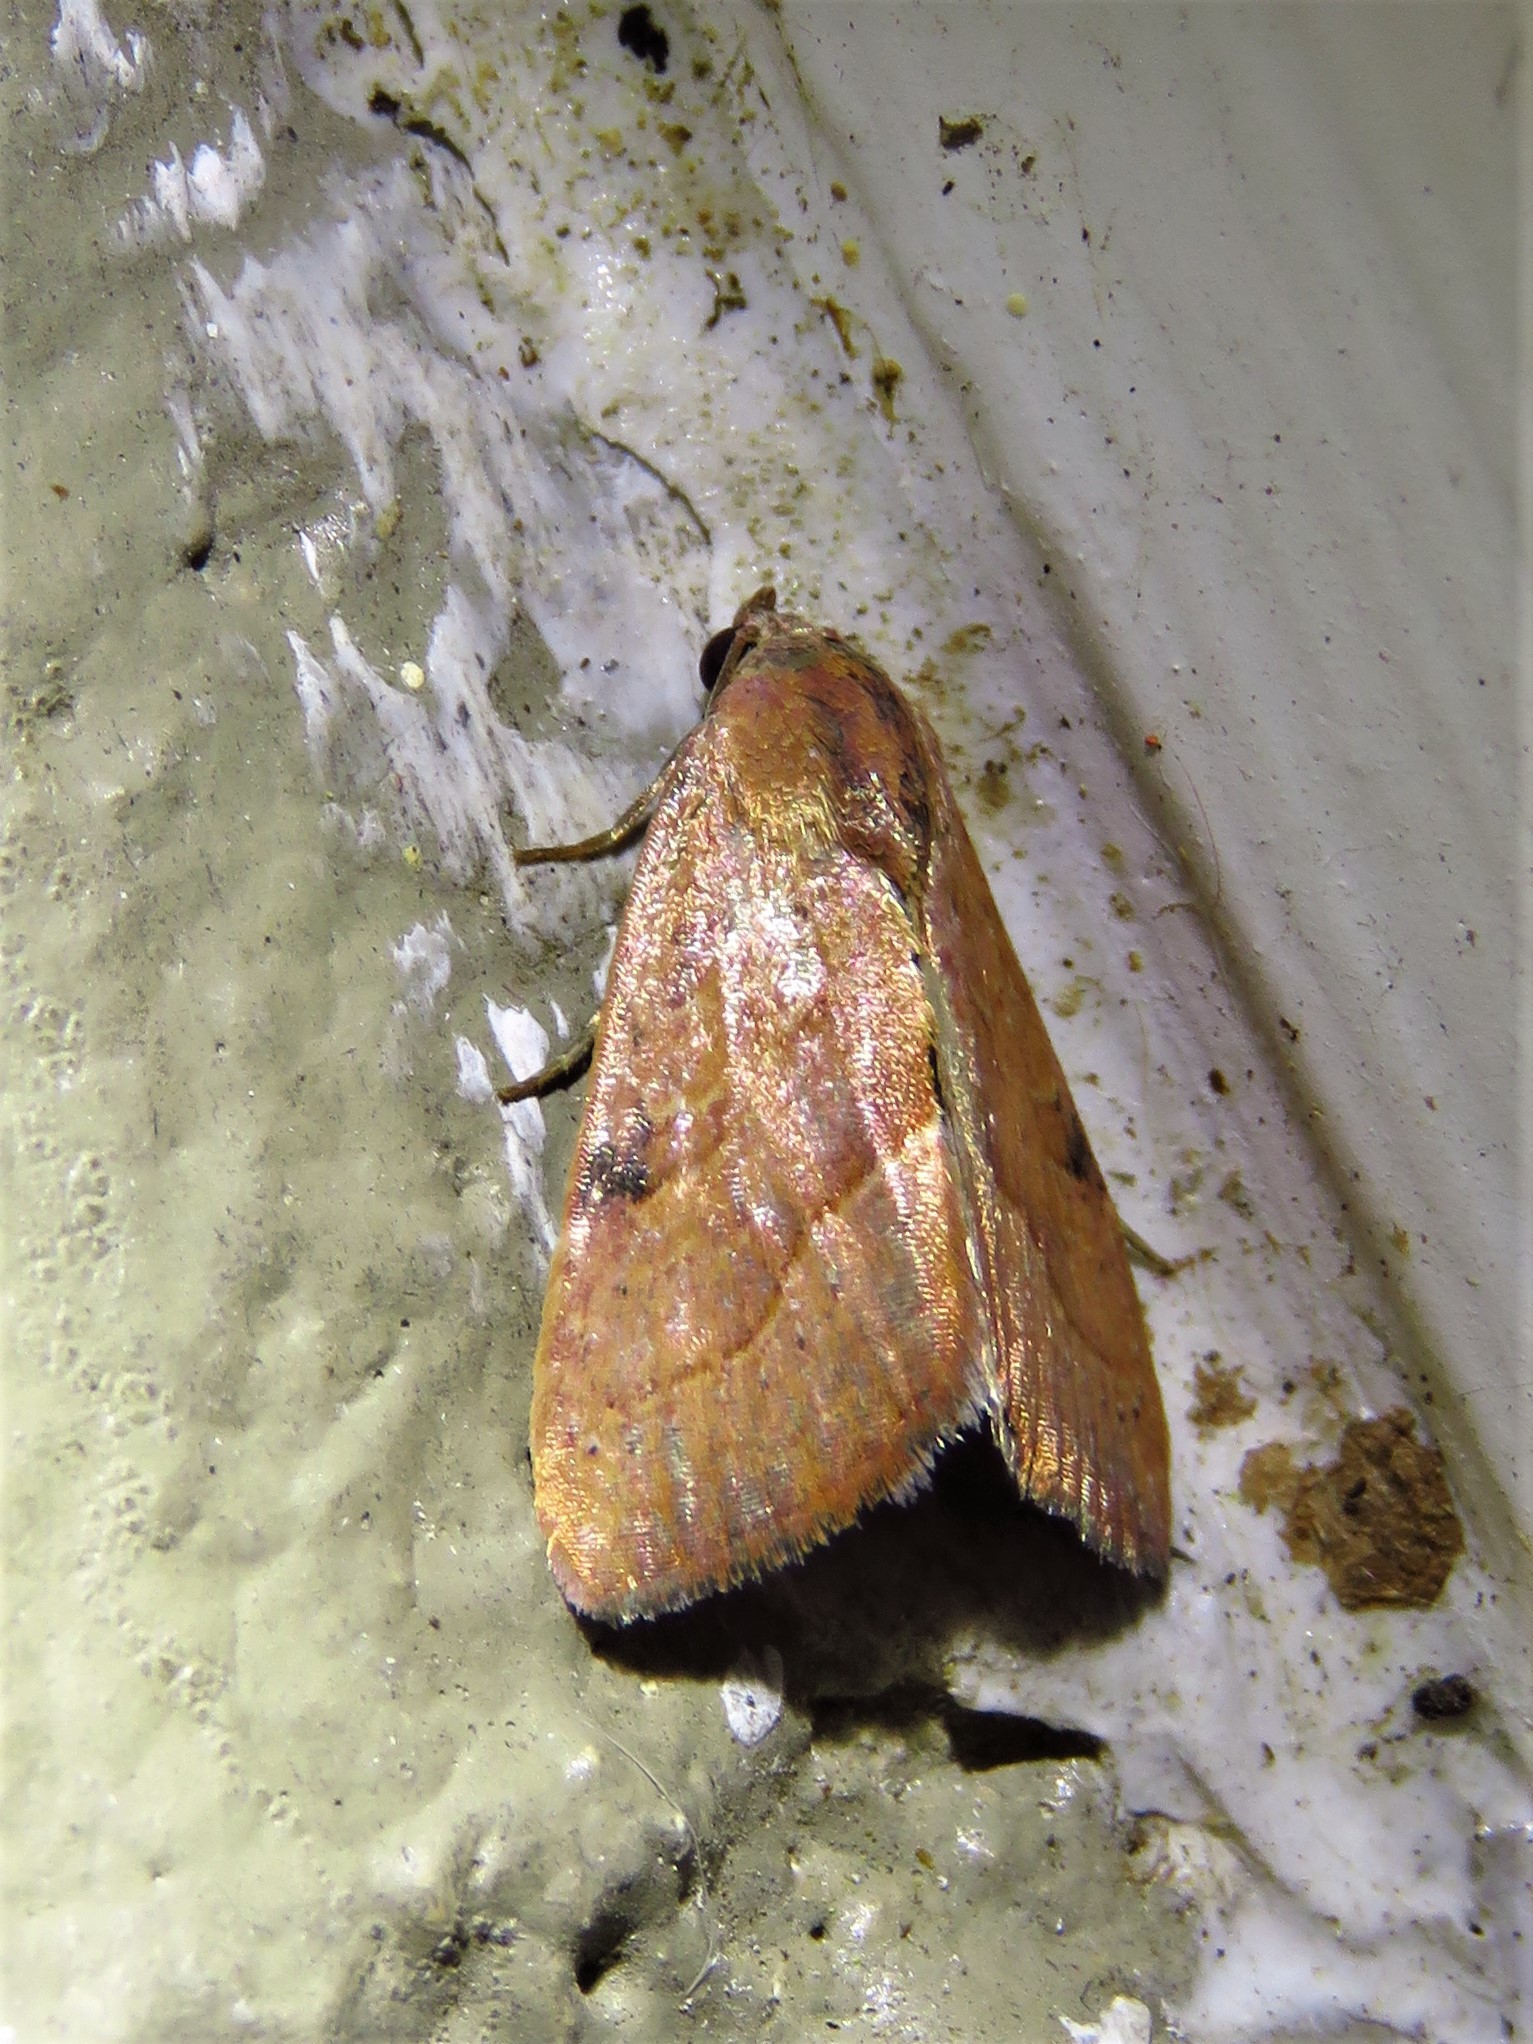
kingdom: Animalia
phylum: Arthropoda
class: Insecta
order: Lepidoptera
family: Noctuidae
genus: Galgula
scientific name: Galgula partita
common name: Wedgeling
